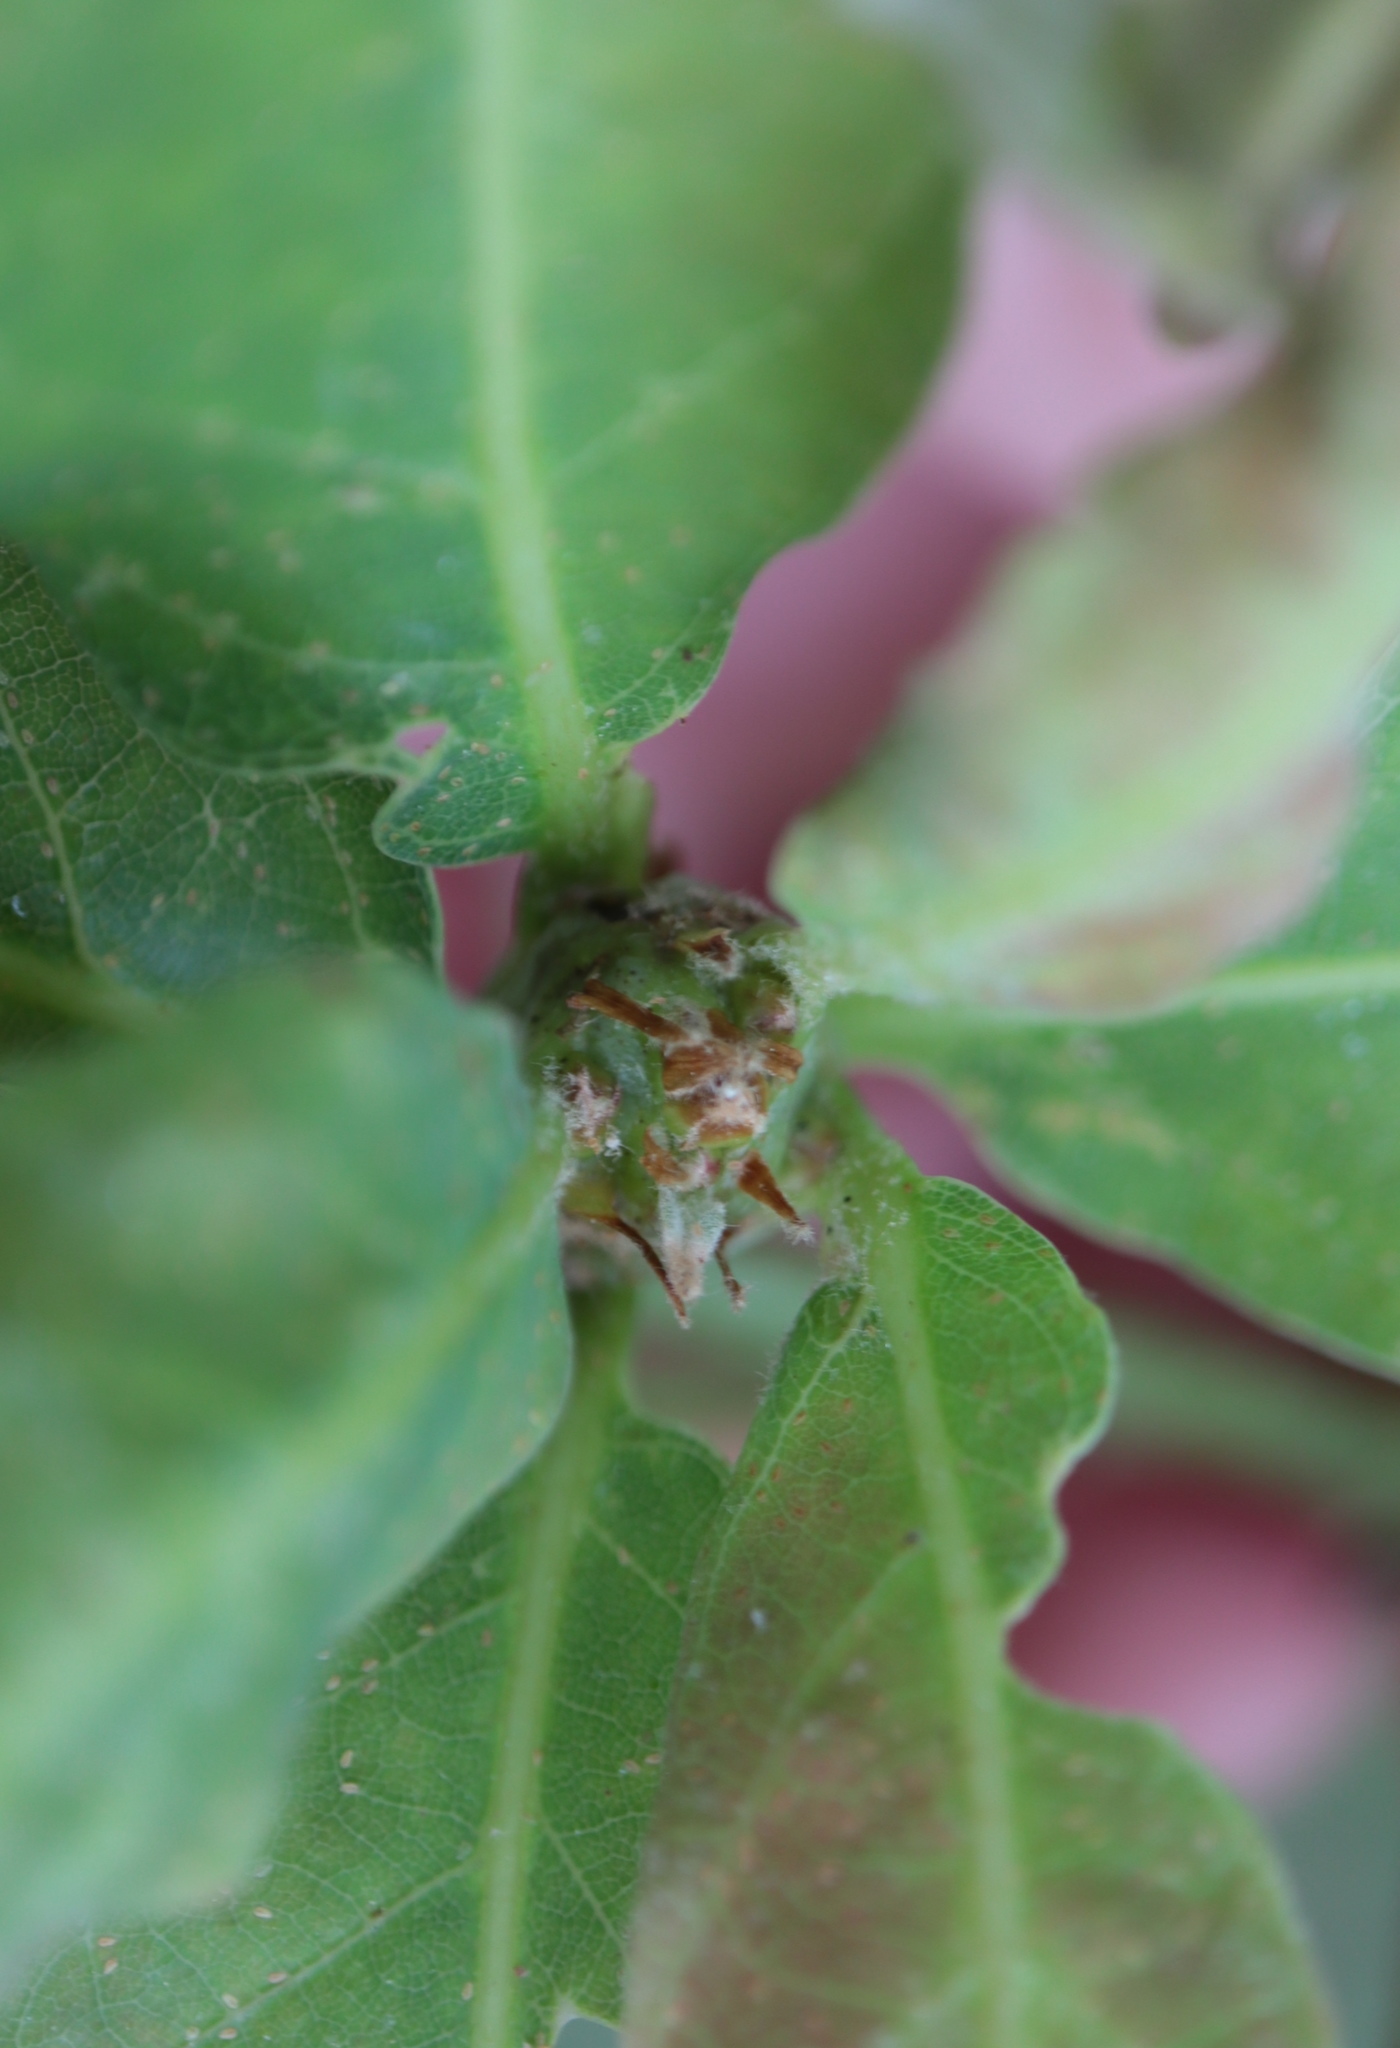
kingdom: Animalia
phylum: Arthropoda
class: Insecta
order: Hymenoptera
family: Cynipidae
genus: Neuroterus
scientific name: Neuroterus quercusbaccarum
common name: Common spangle gall
